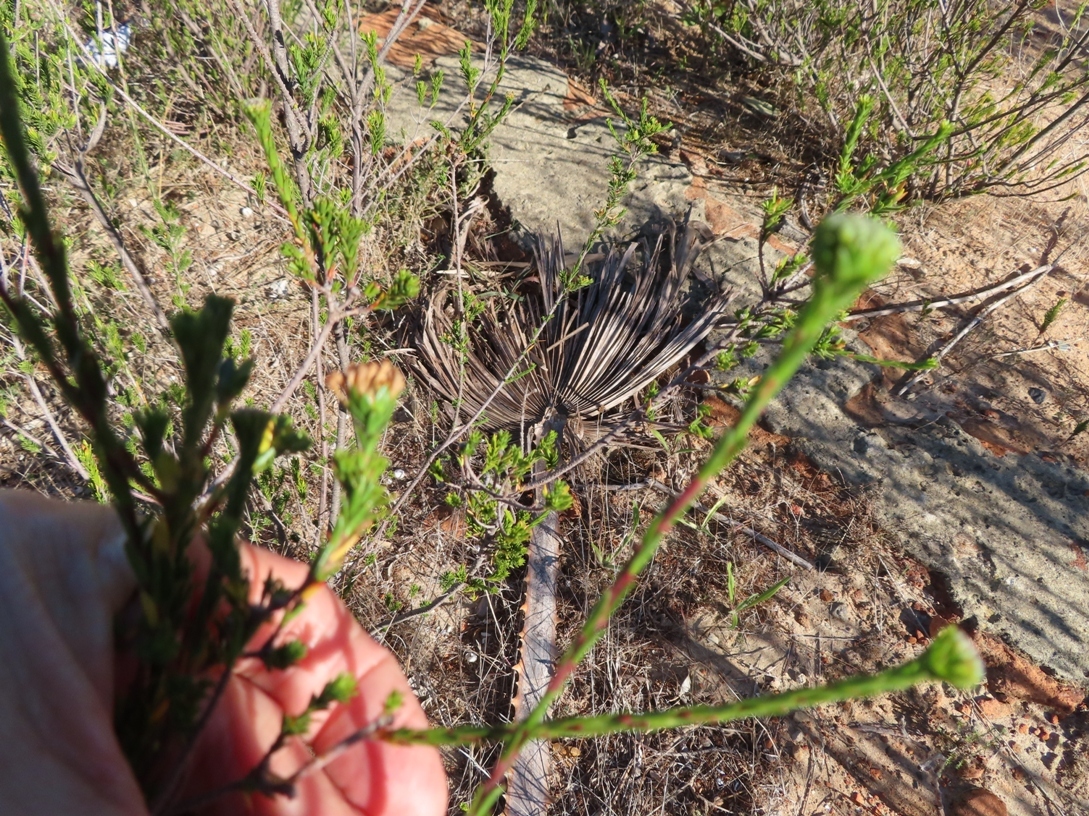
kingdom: Plantae
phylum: Tracheophyta
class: Magnoliopsida
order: Malvales
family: Thymelaeaceae
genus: Gnidia
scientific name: Gnidia laxa
